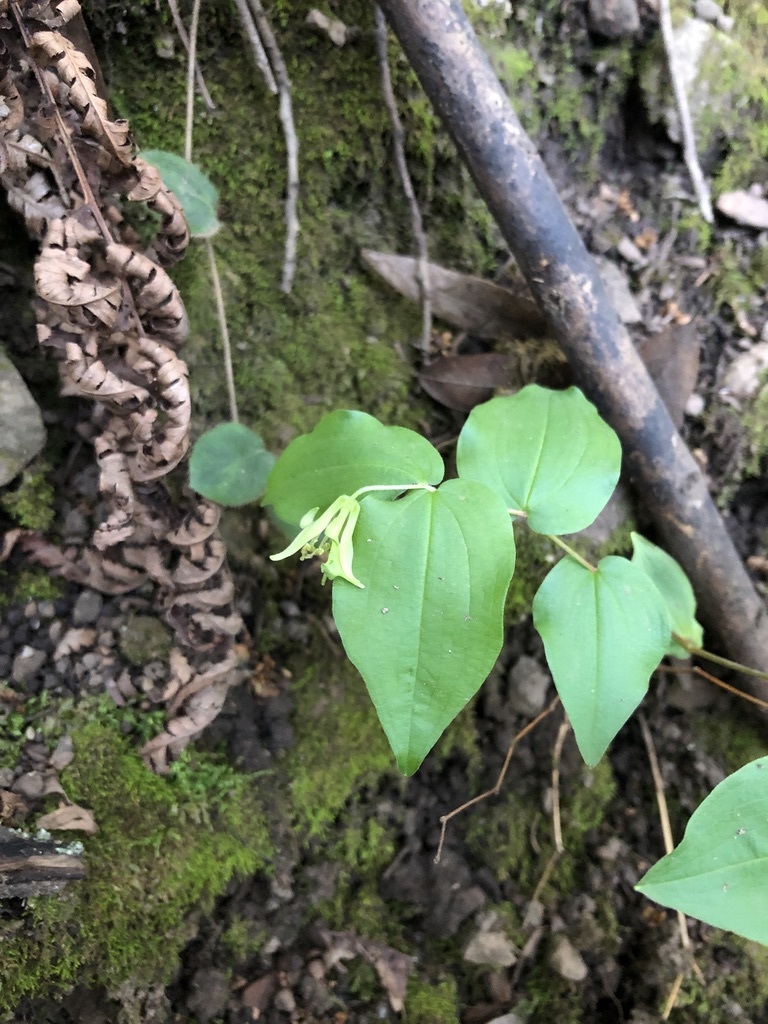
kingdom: Plantae
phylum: Tracheophyta
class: Liliopsida
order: Liliales
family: Liliaceae
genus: Prosartes
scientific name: Prosartes hookeri
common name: Fairy-bells
